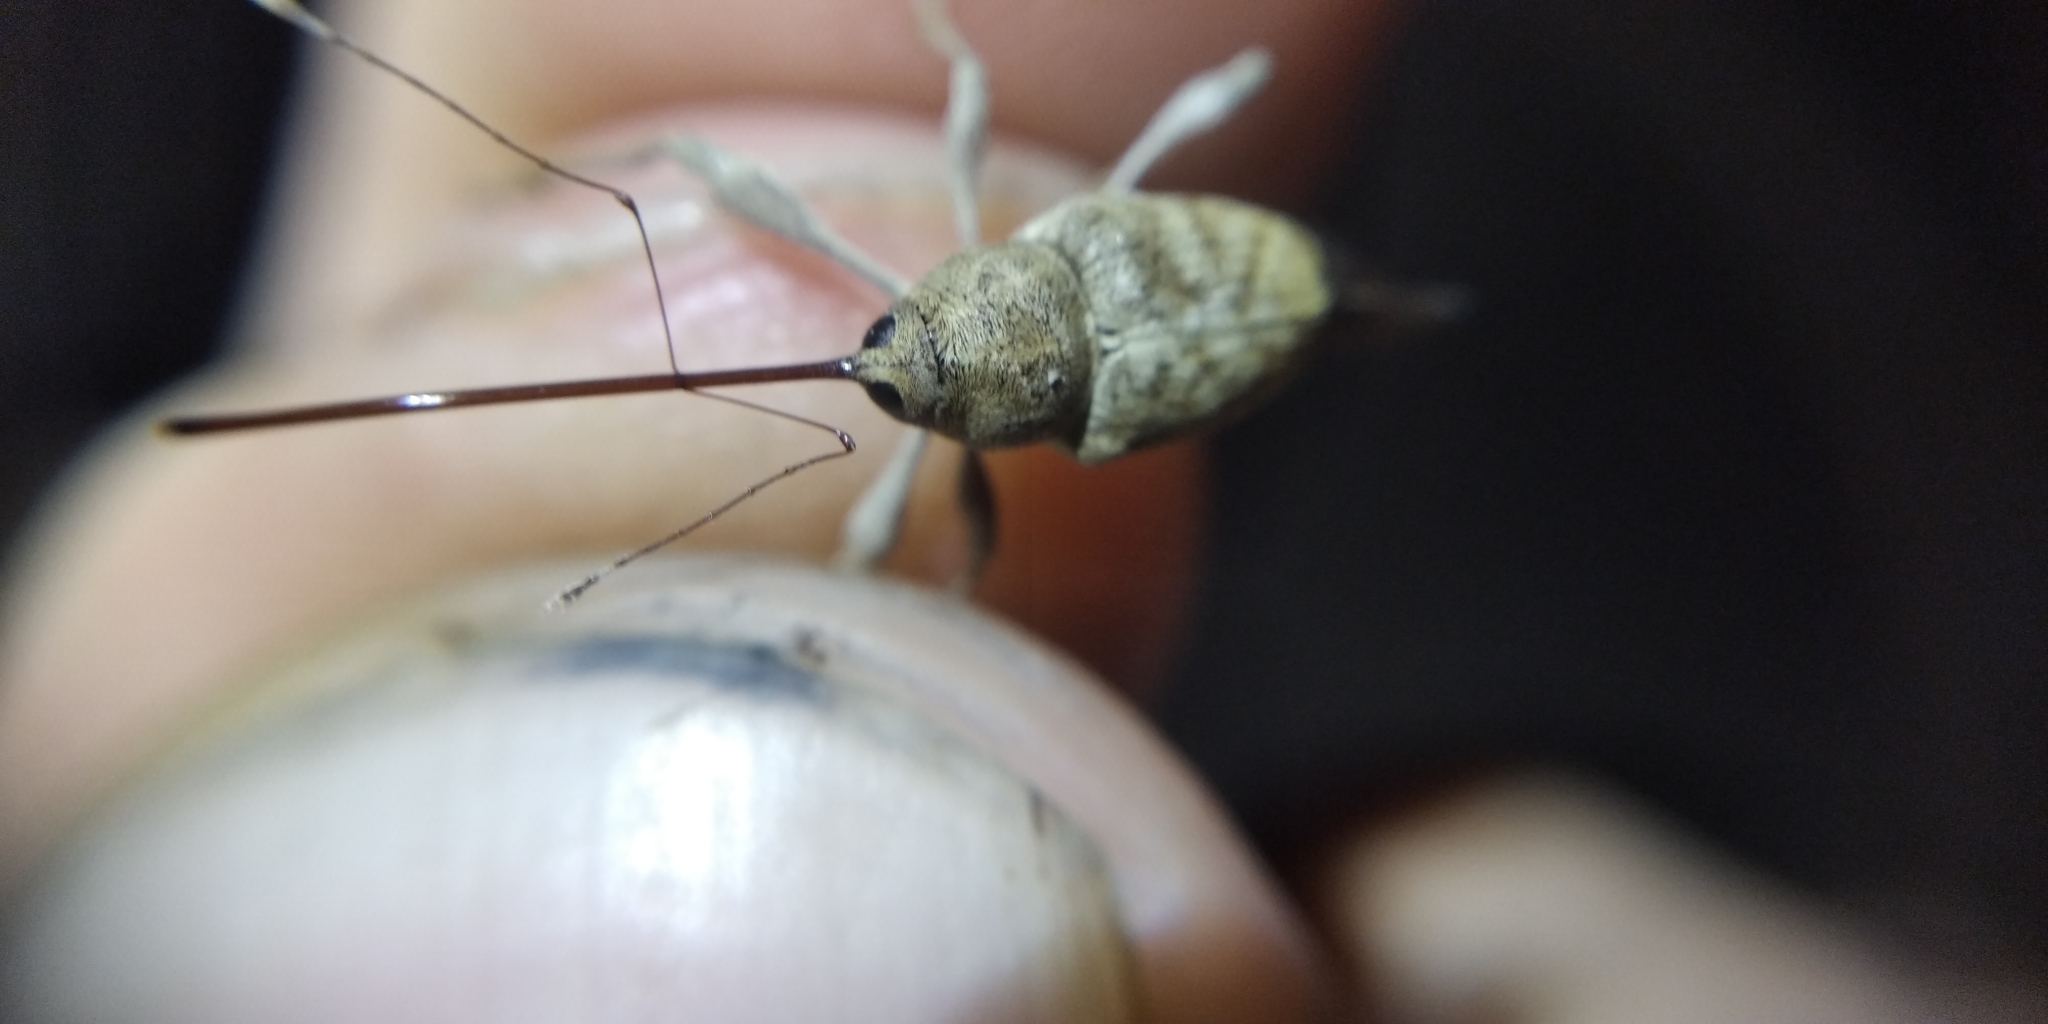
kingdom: Animalia
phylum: Arthropoda
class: Insecta
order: Coleoptera
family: Curculionidae
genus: Curculio
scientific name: Curculio elephas
